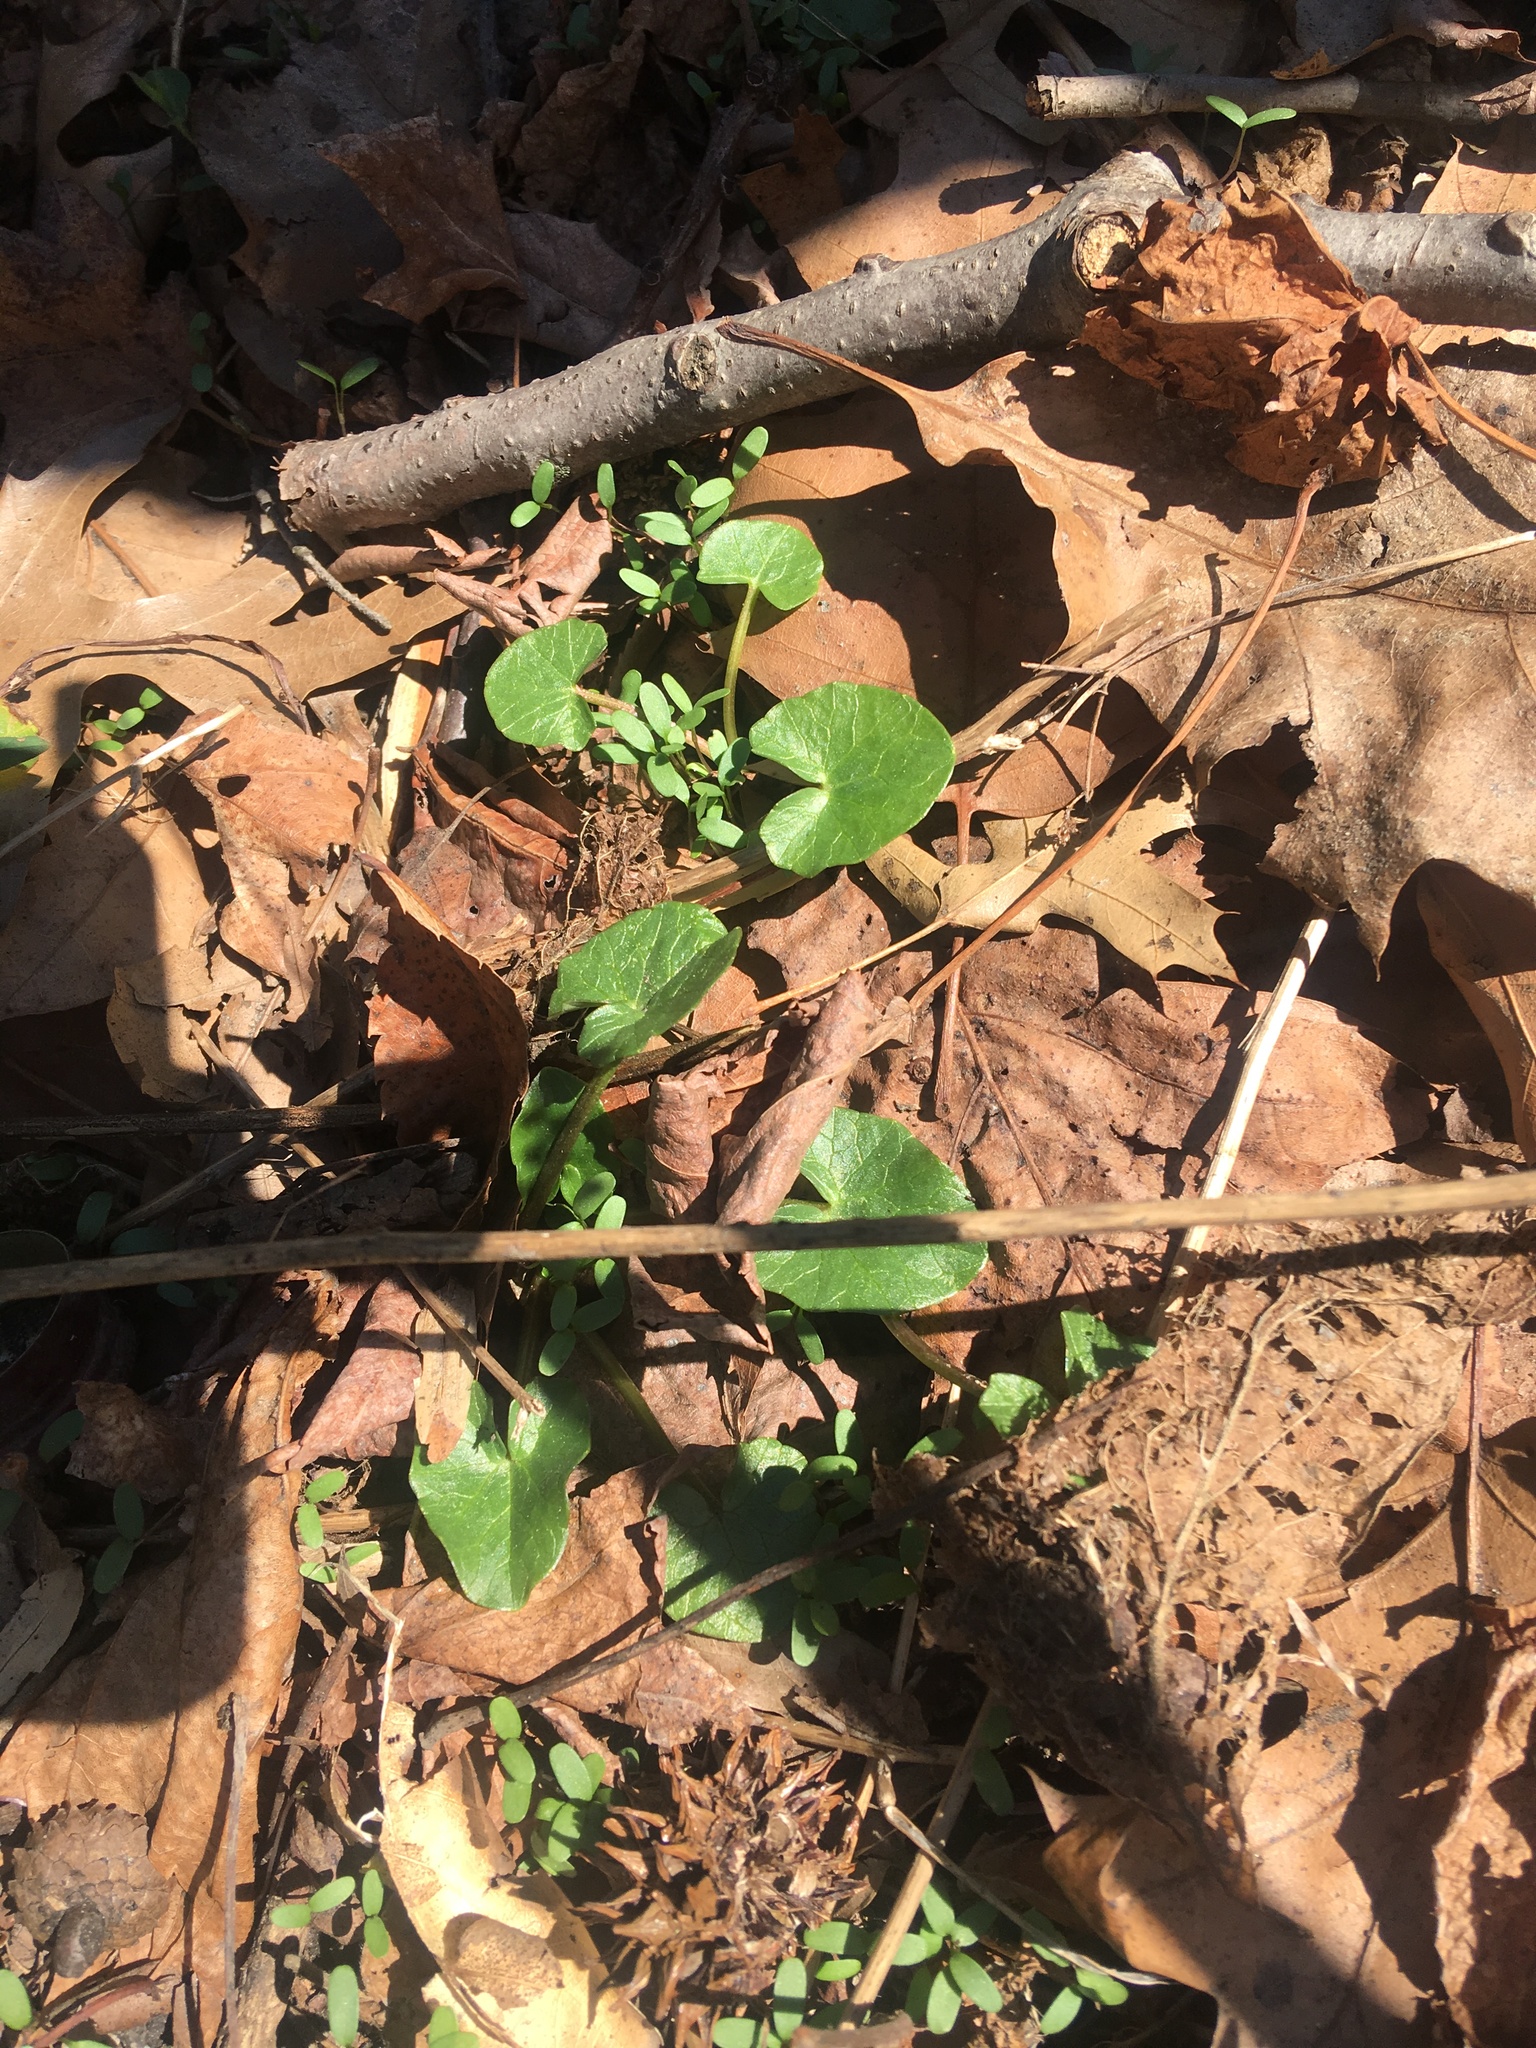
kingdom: Plantae
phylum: Tracheophyta
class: Magnoliopsida
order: Ranunculales
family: Ranunculaceae
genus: Ficaria
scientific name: Ficaria verna
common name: Lesser celandine
